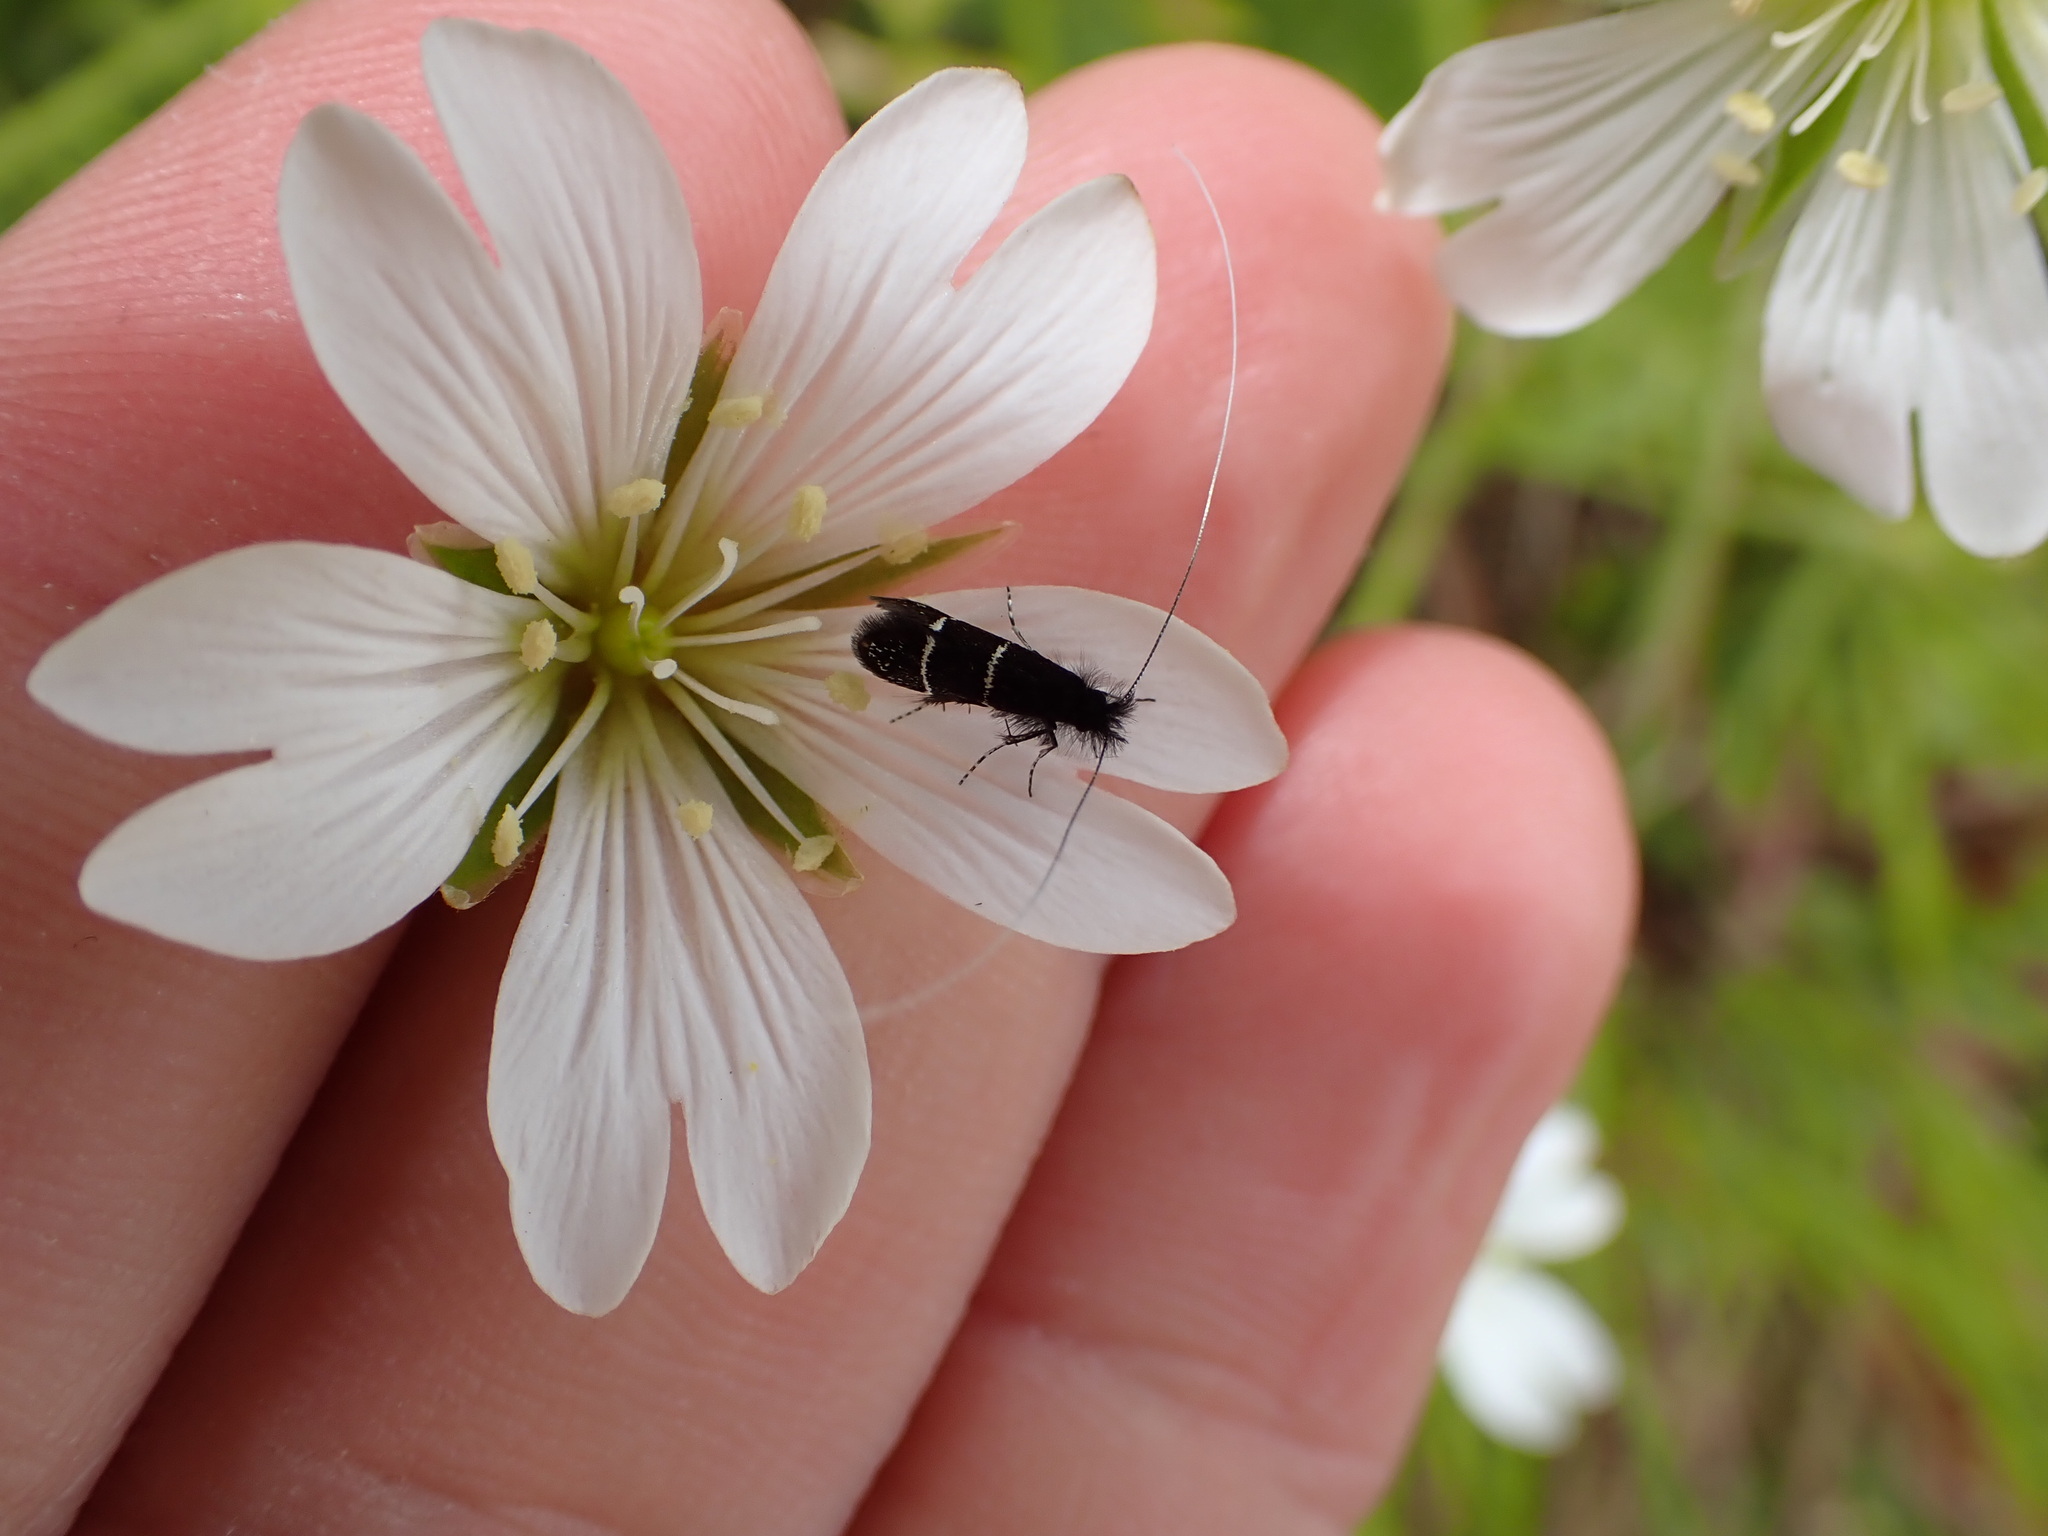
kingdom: Animalia
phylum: Arthropoda
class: Insecta
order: Lepidoptera
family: Adelidae
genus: Adela
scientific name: Adela septentrionella
